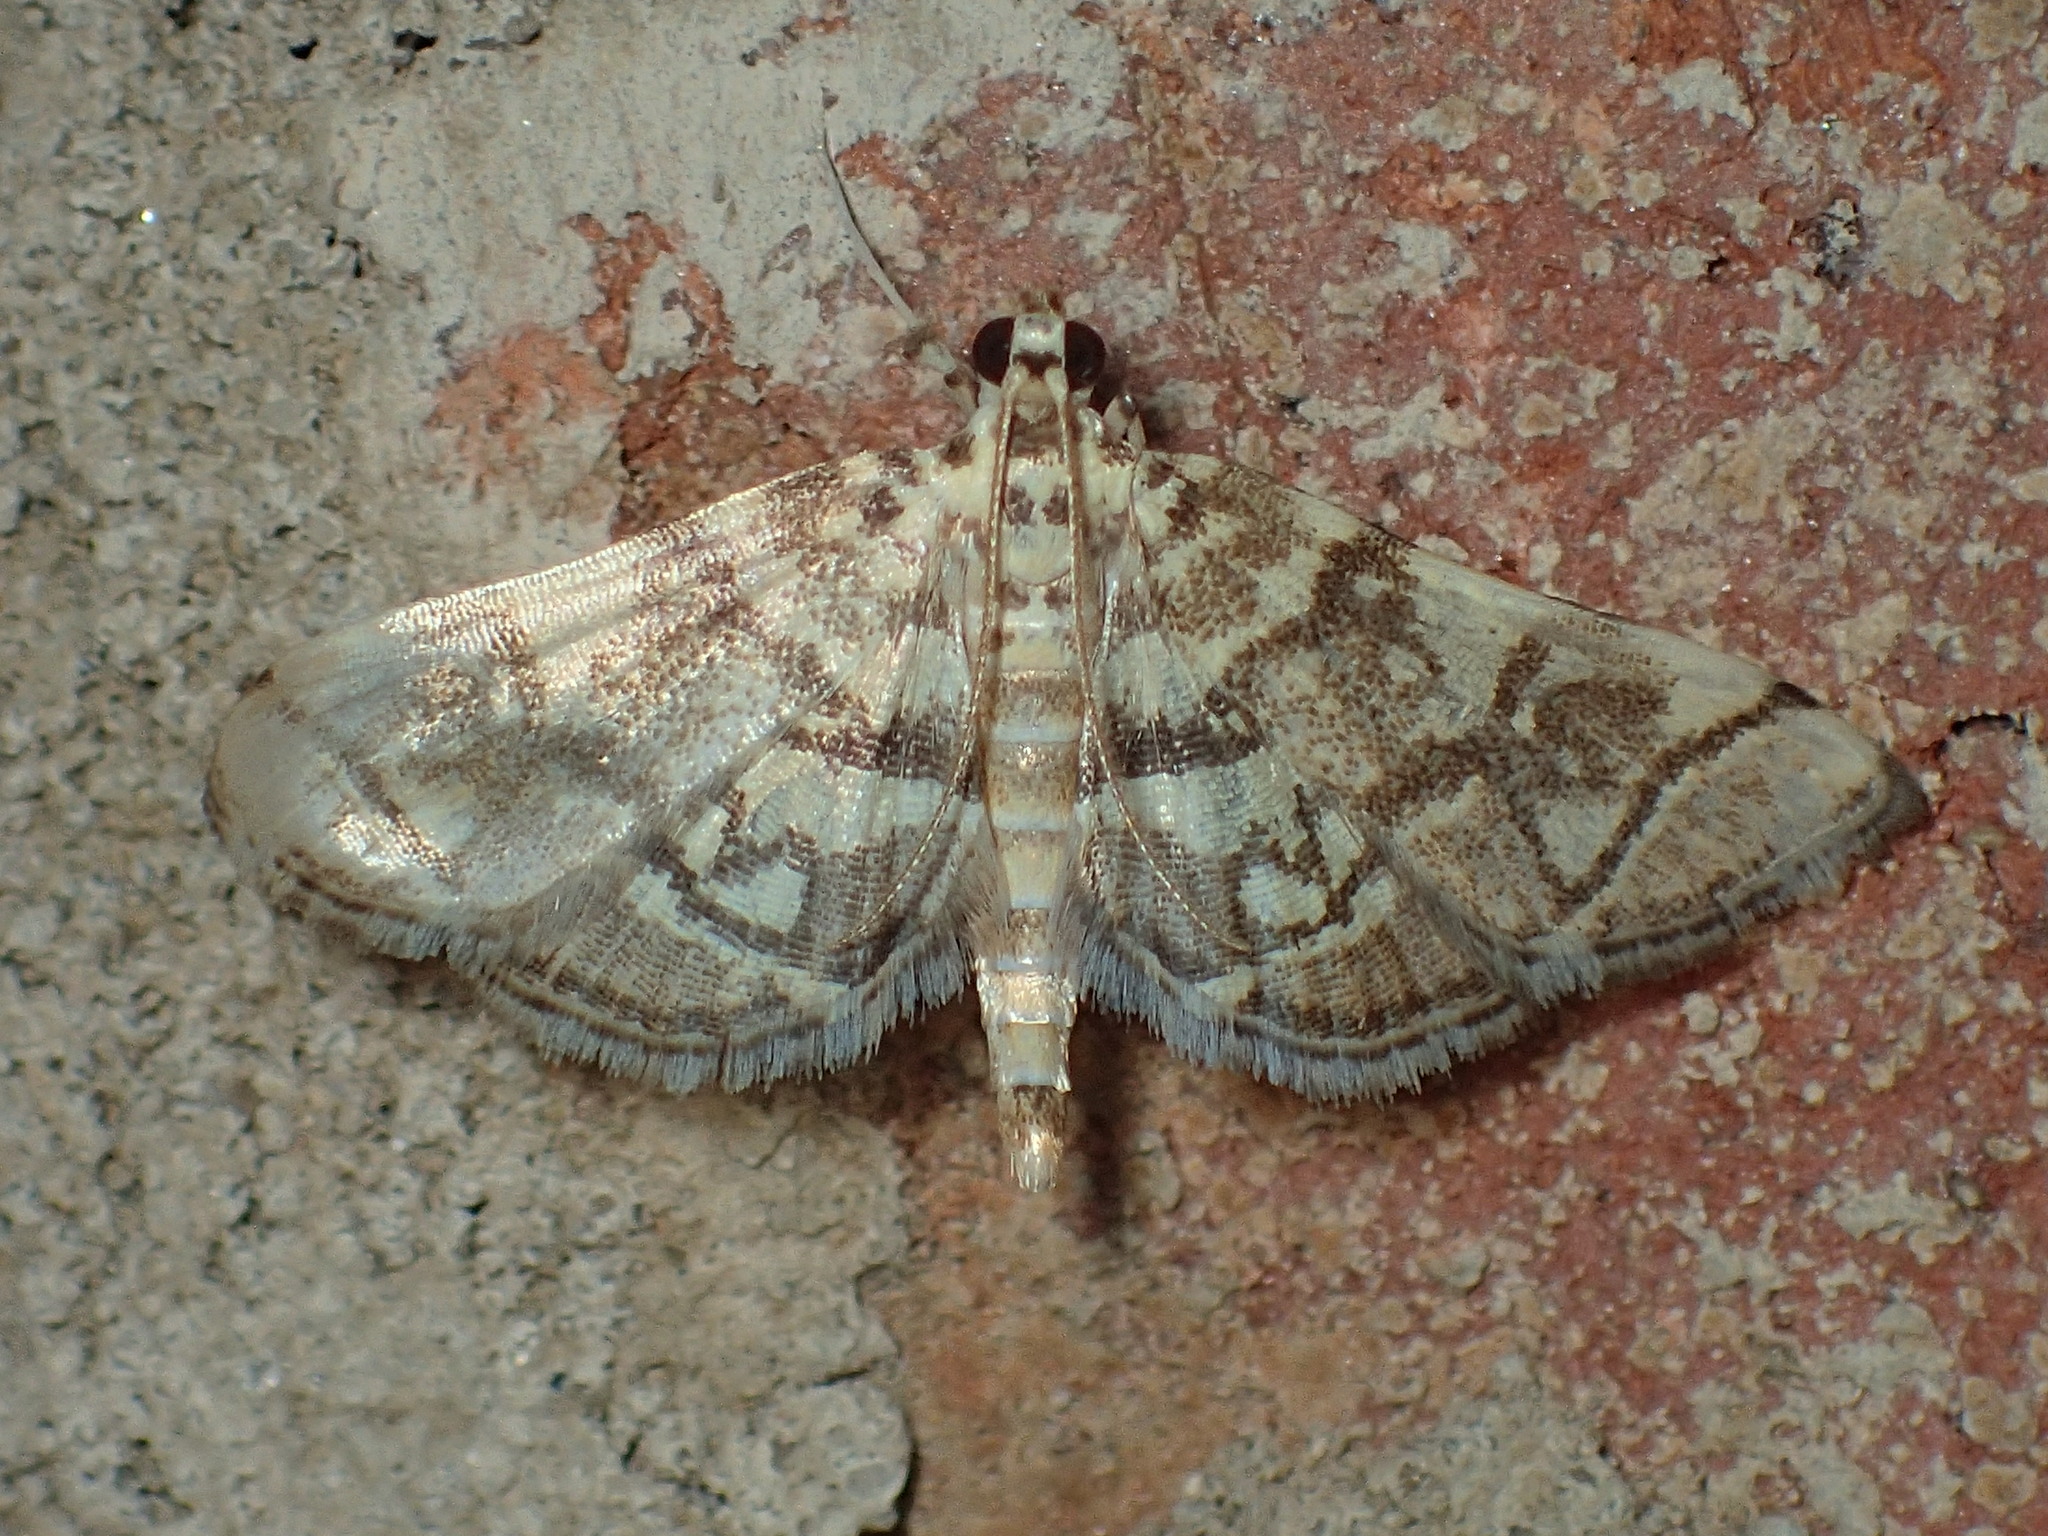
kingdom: Animalia
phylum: Arthropoda
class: Insecta
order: Lepidoptera
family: Crambidae
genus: Lamprosema
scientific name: Lamprosema Blepharomastix ranalis
